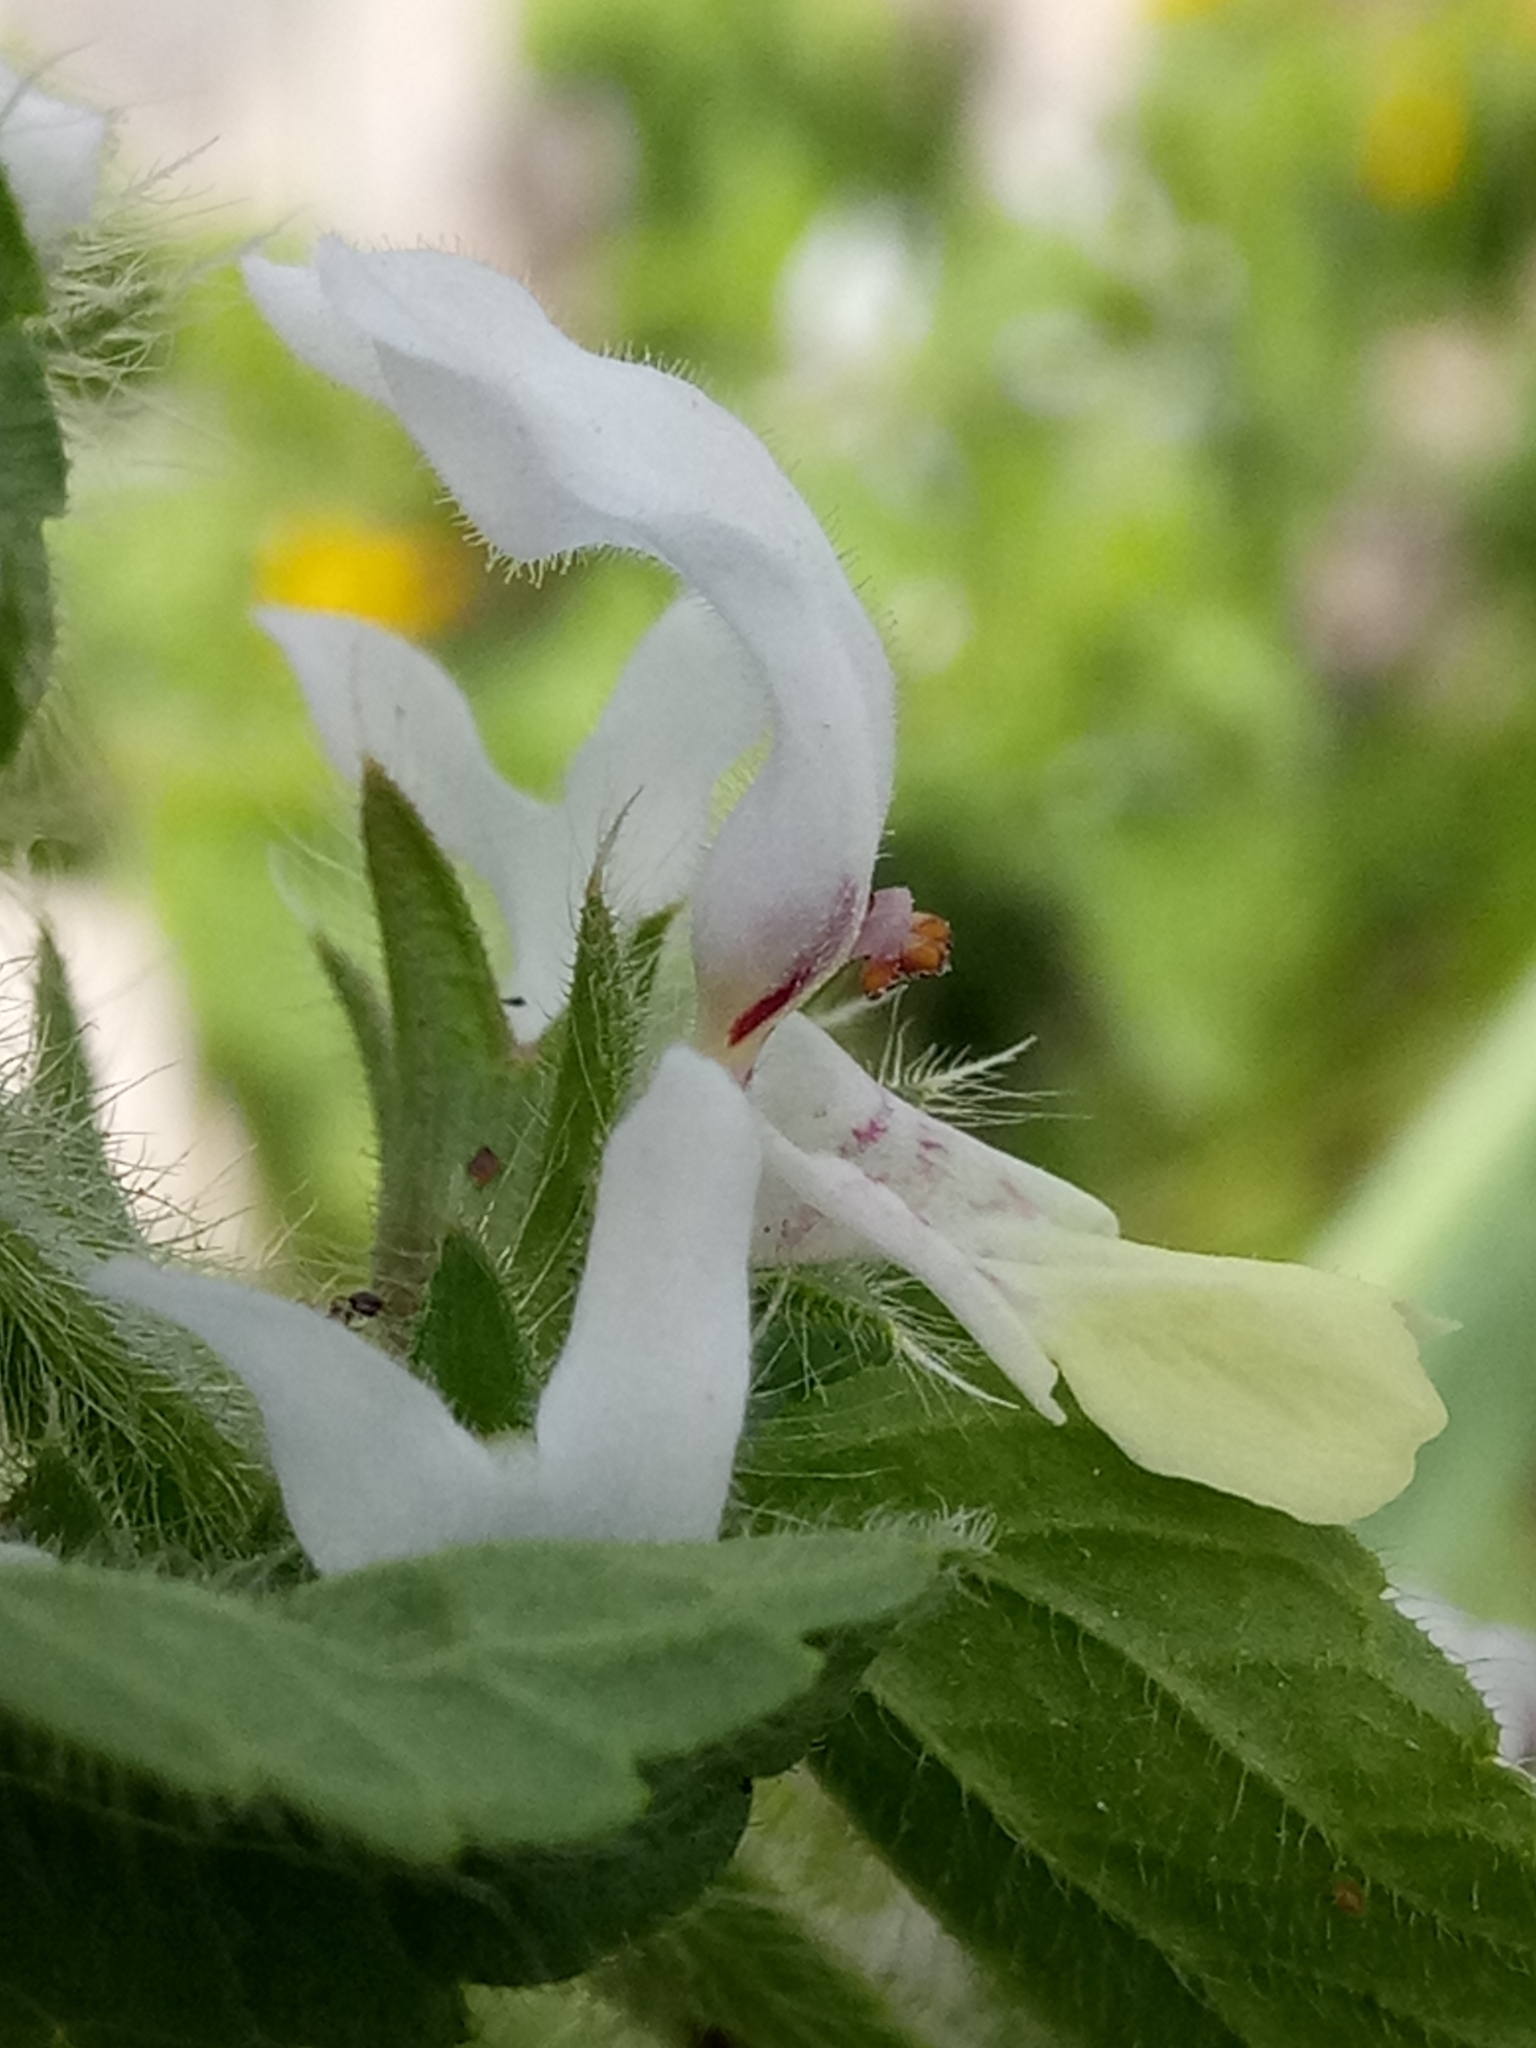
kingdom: Plantae
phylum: Tracheophyta
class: Magnoliopsida
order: Lamiales
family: Lamiaceae
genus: Stachys
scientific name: Stachys ocymastrum
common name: Italian hedgenettle
